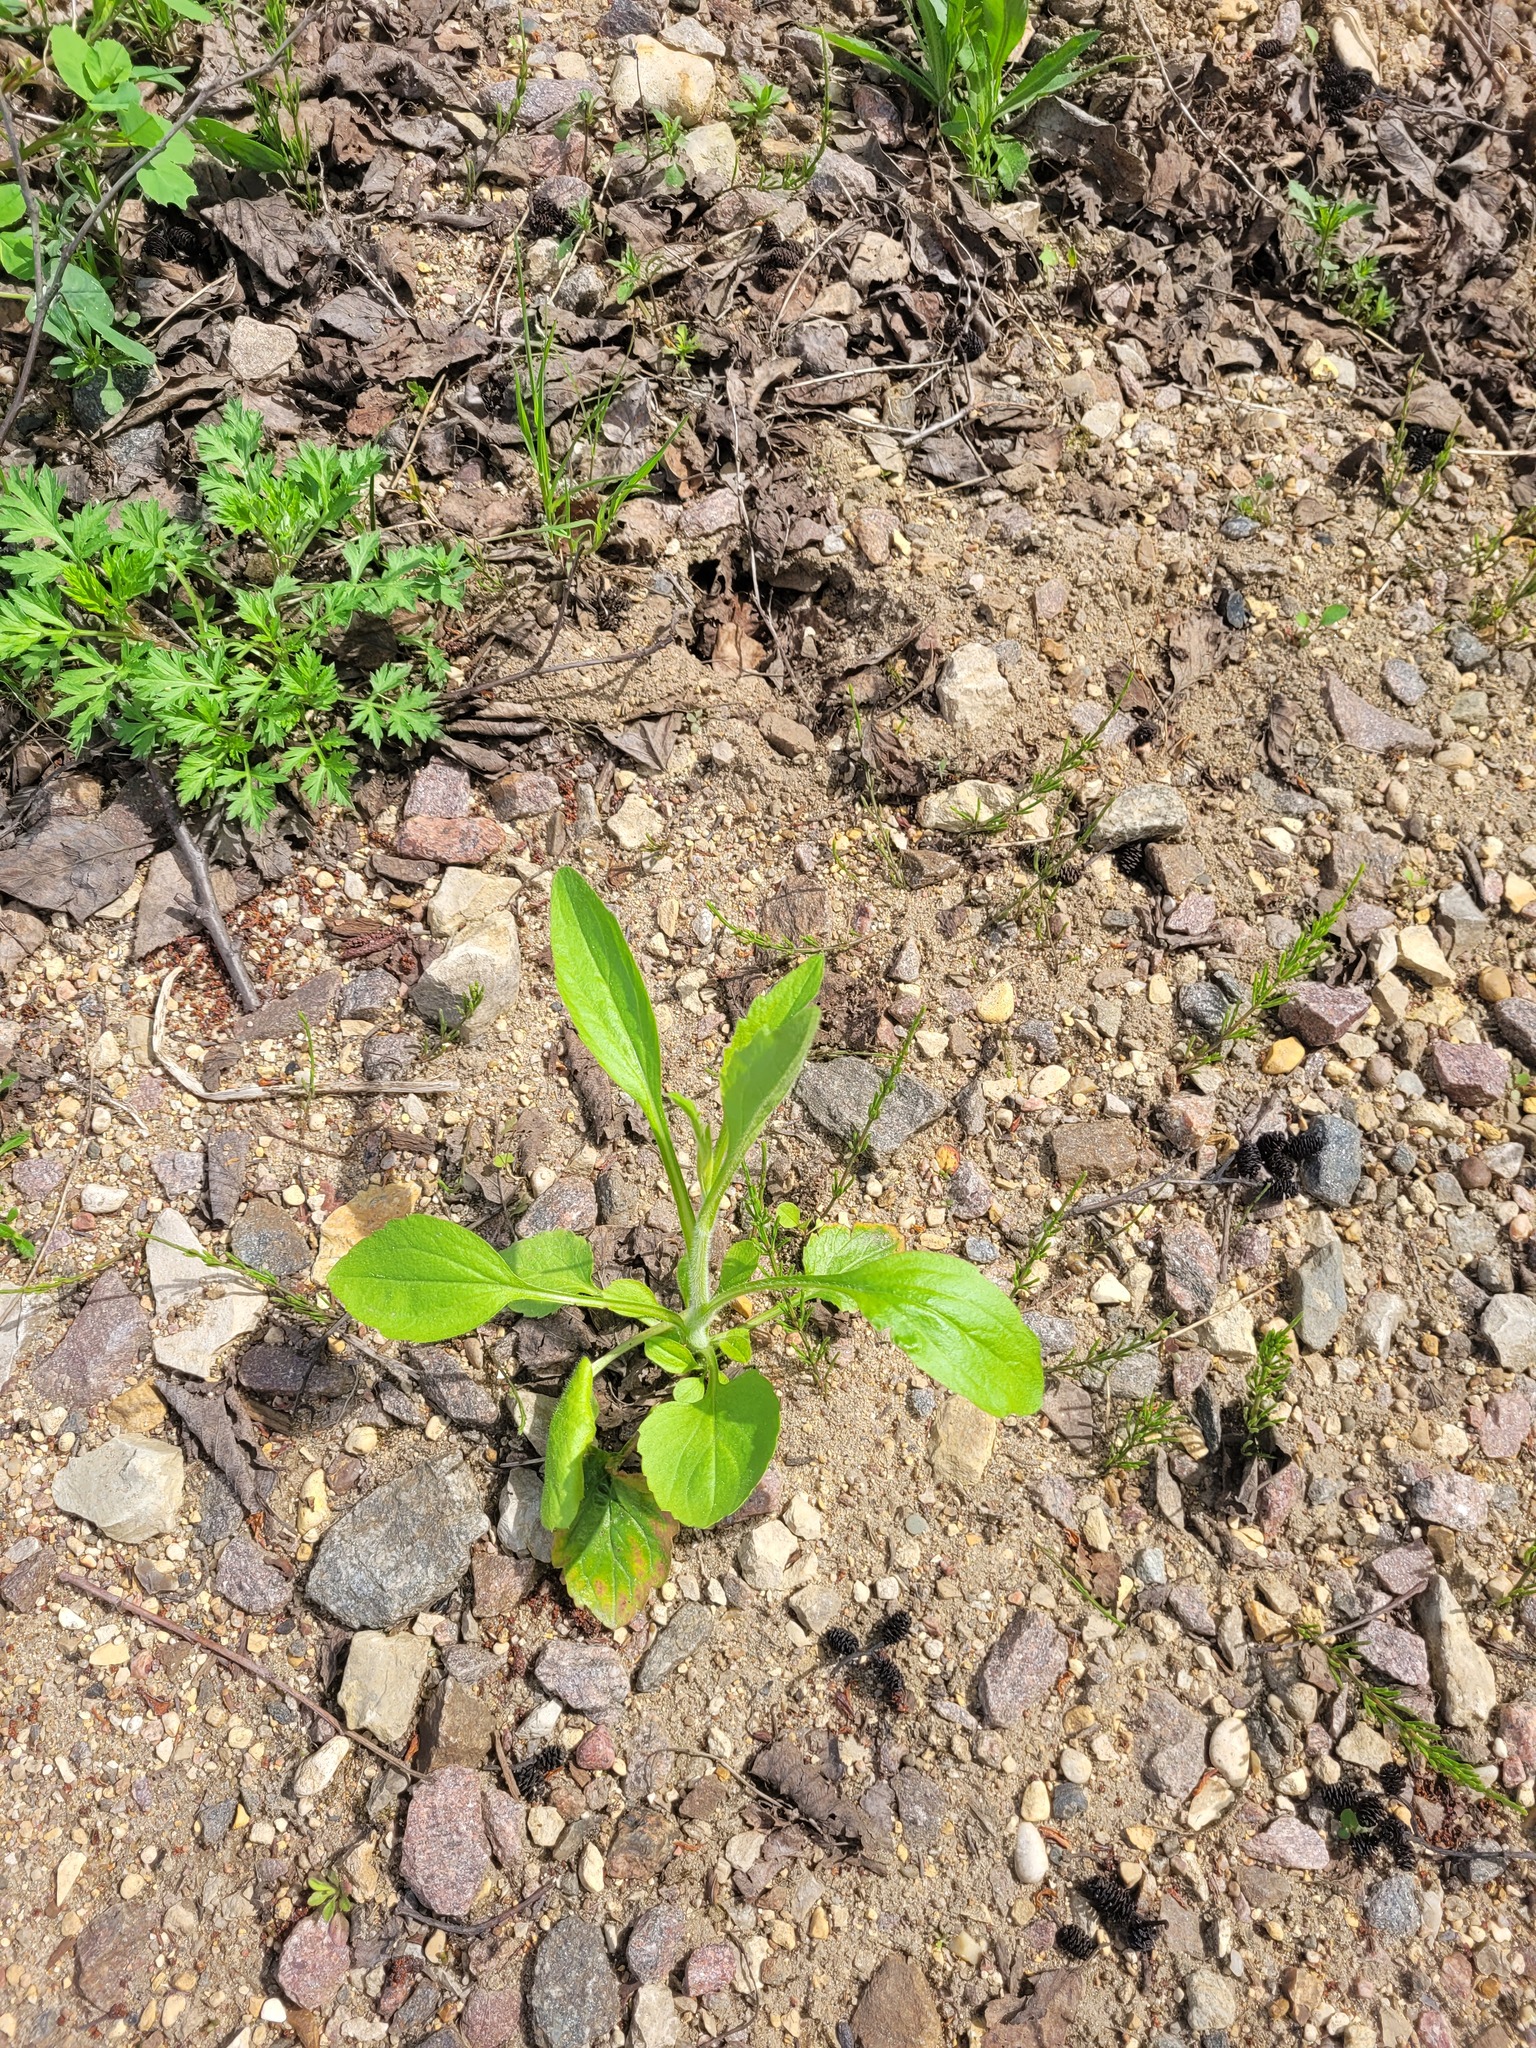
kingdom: Plantae
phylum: Tracheophyta
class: Magnoliopsida
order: Asterales
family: Asteraceae
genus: Erigeron
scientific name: Erigeron annuus
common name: Tall fleabane
